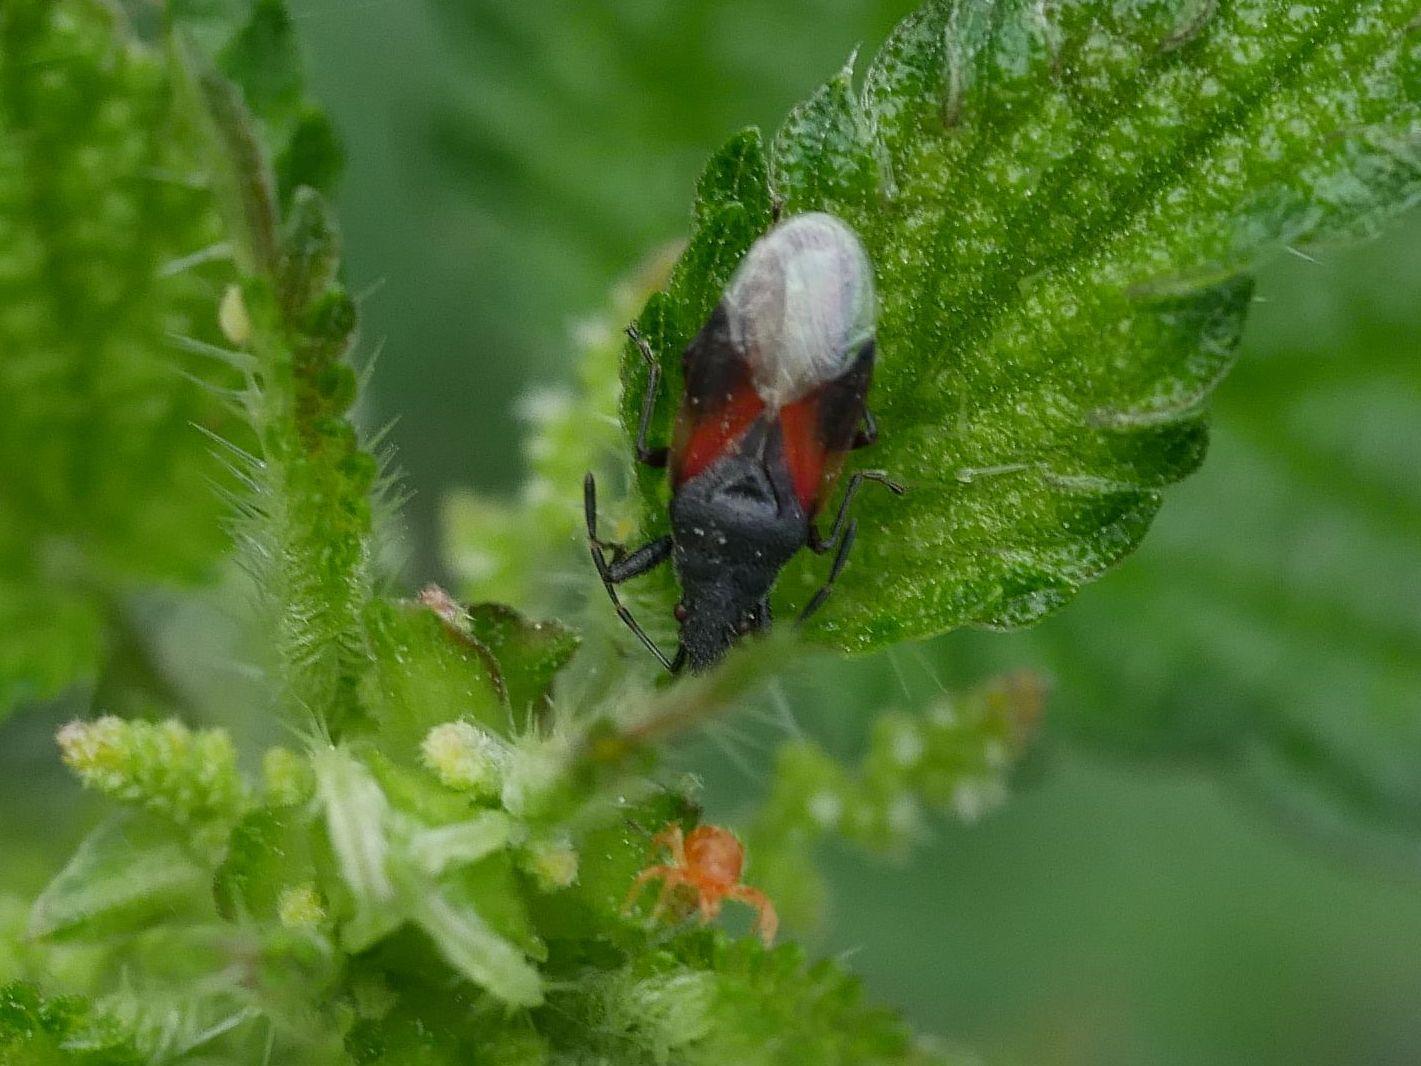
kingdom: Animalia
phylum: Arthropoda
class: Insecta
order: Hemiptera
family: Oxycarenidae
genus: Oxycarenus
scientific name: Oxycarenus lavaterae
